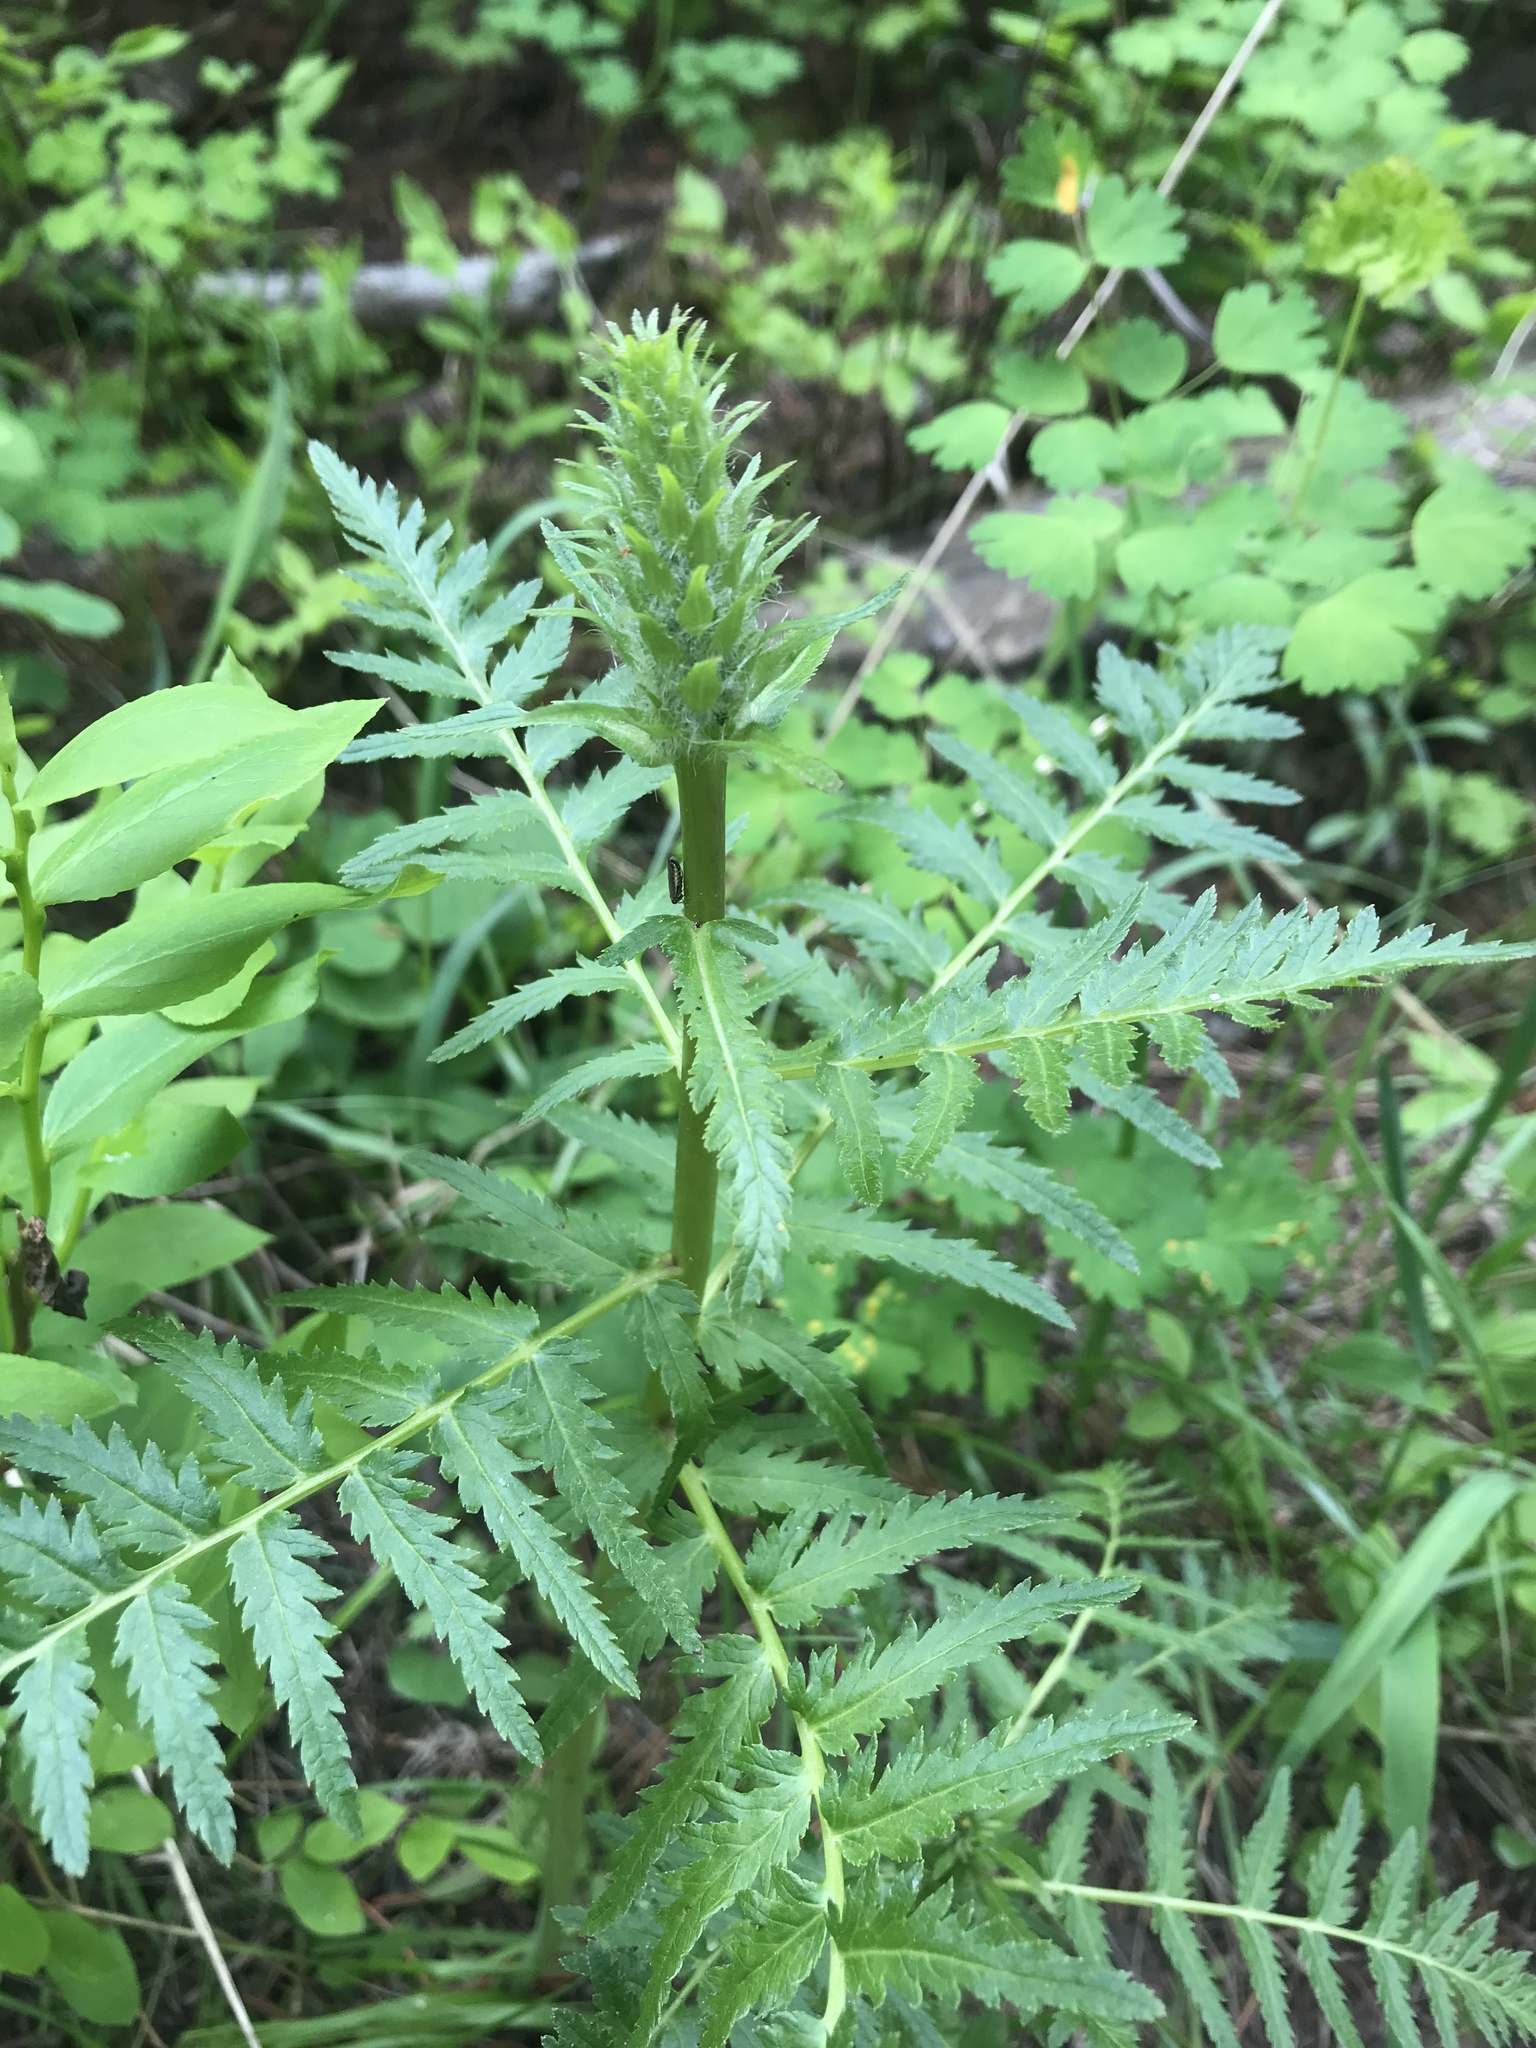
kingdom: Plantae
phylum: Tracheophyta
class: Magnoliopsida
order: Lamiales
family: Orobanchaceae
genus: Pedicularis
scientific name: Pedicularis bracteosa
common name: Bracted lousewort
